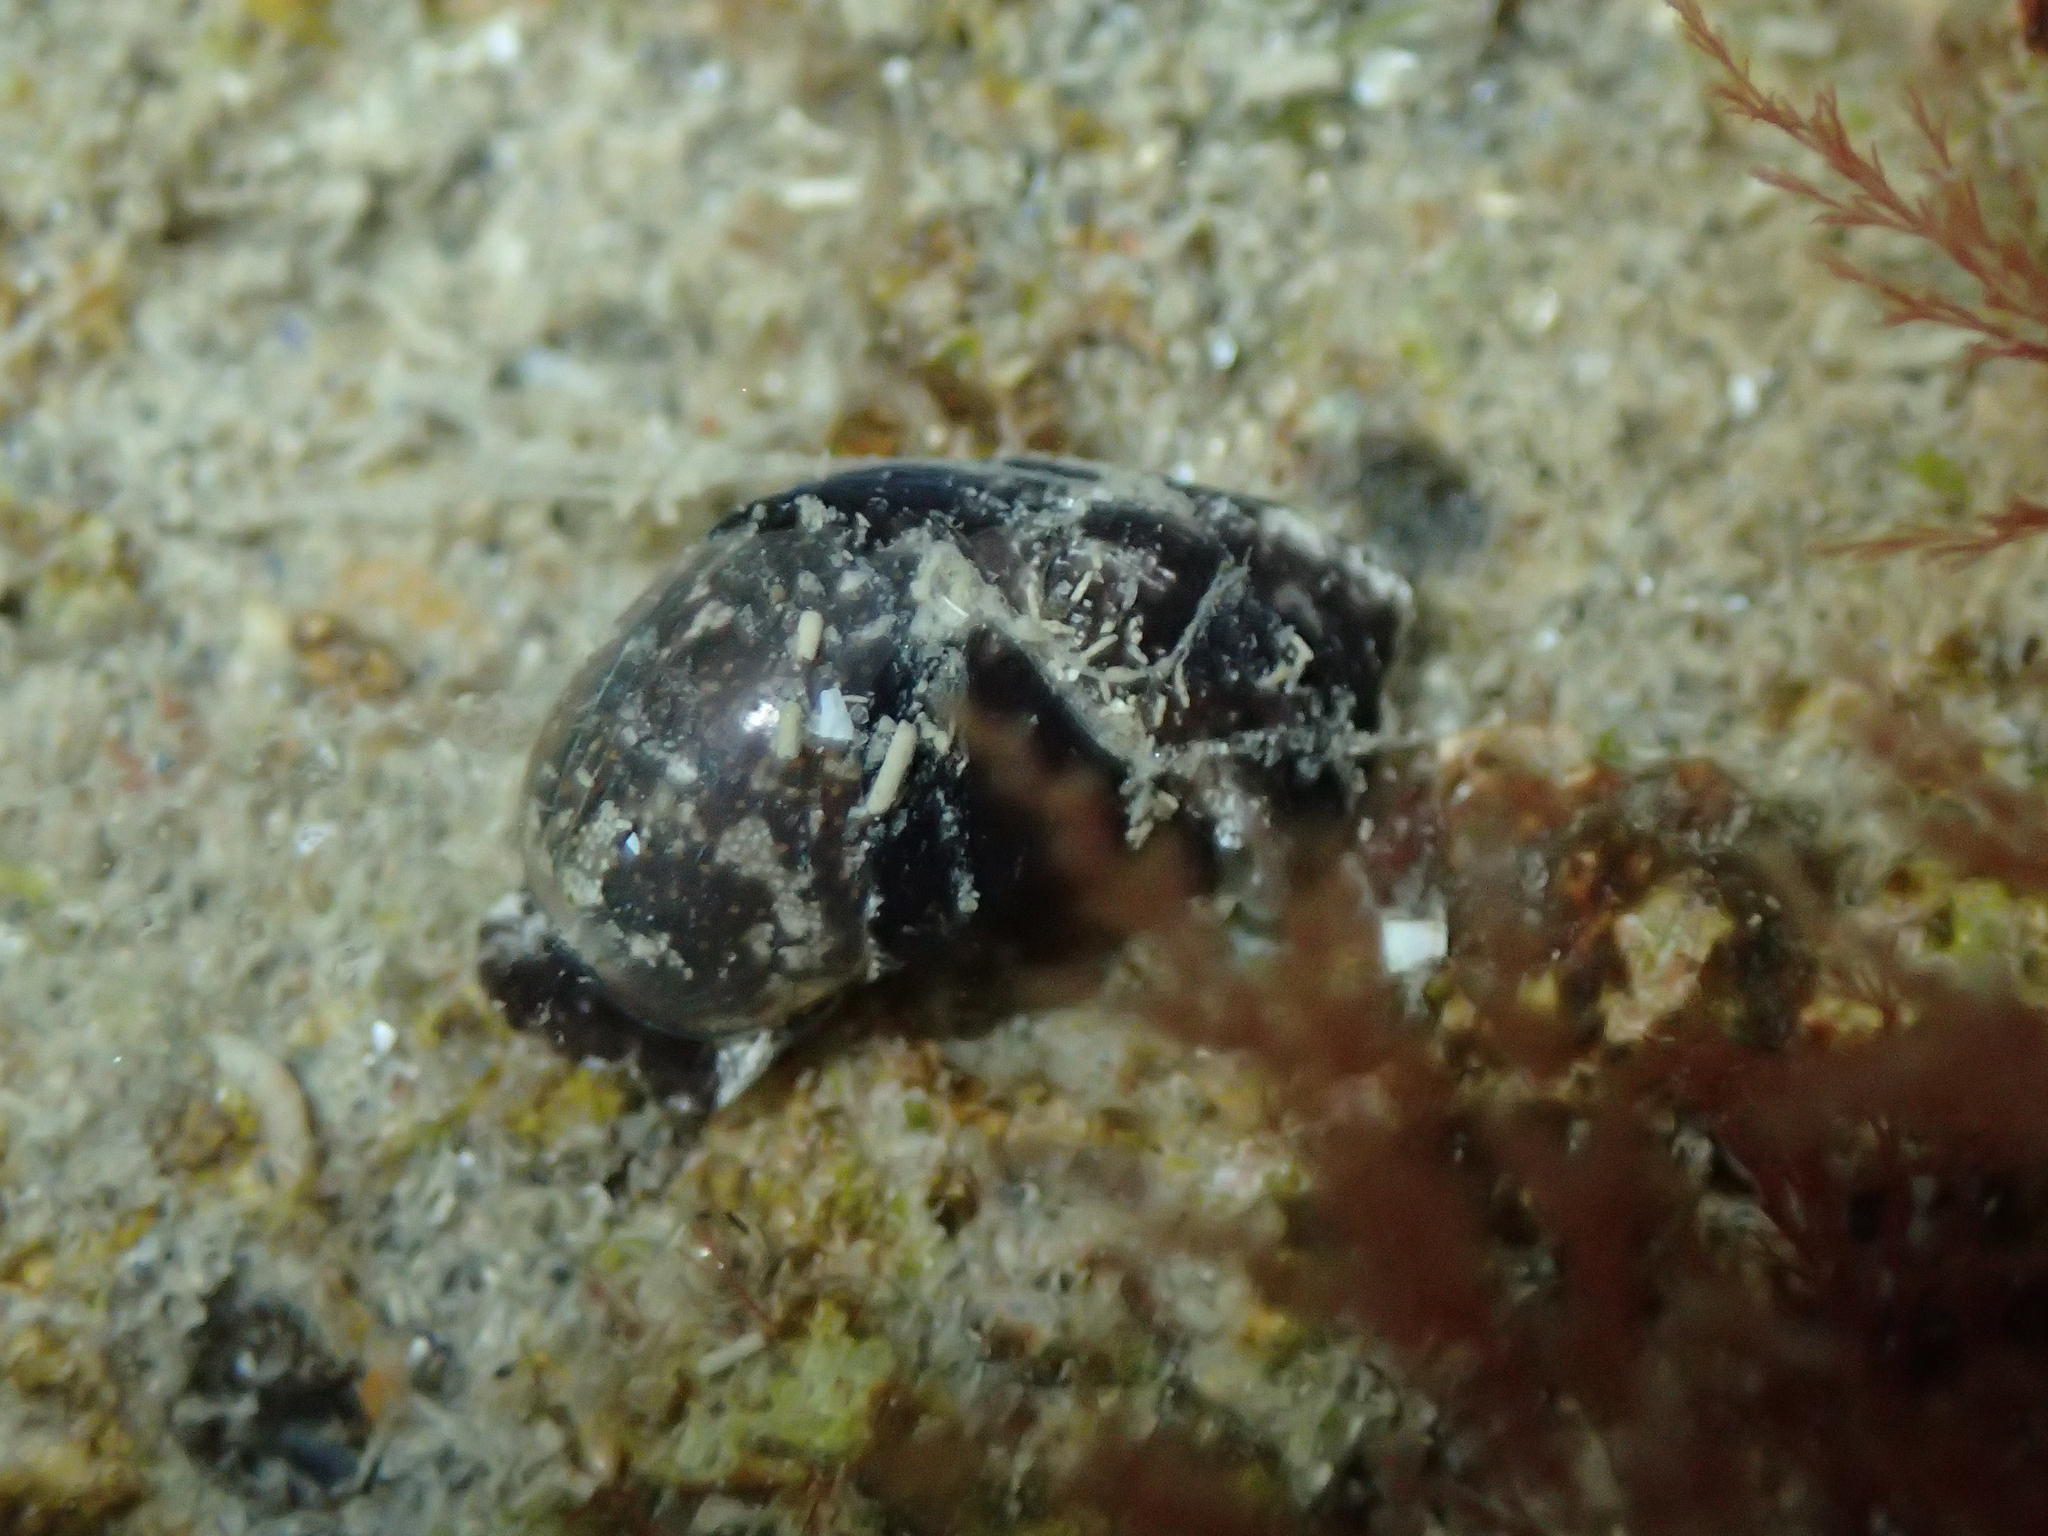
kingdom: Animalia
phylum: Mollusca
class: Gastropoda
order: Cephalaspidea
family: Haminoeidae
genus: Haminoea
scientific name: Haminoea exigua
